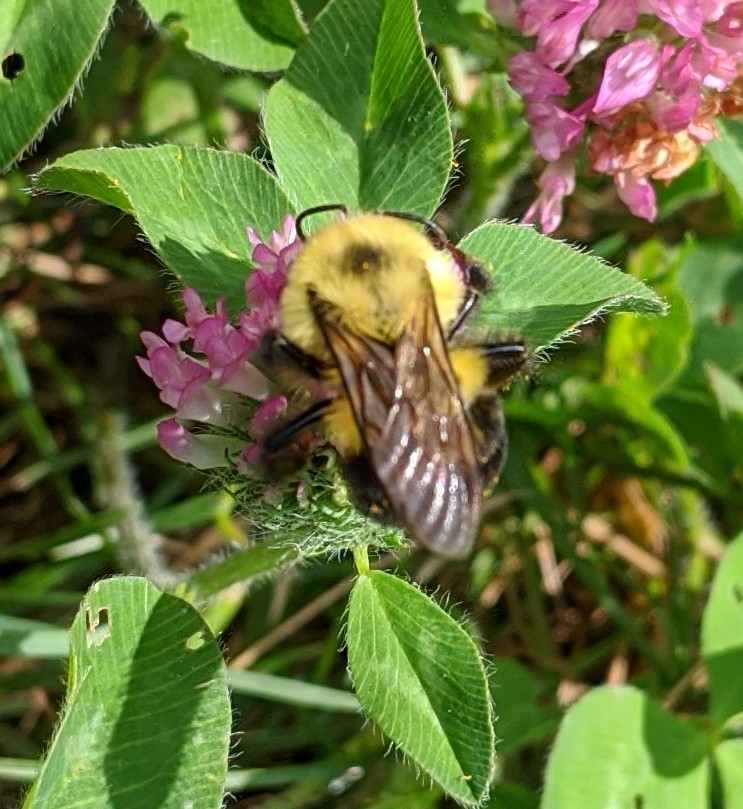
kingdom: Animalia
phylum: Arthropoda
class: Insecta
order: Hymenoptera
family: Apidae
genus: Bombus
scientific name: Bombus bimaculatus
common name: Two-spotted bumble bee
